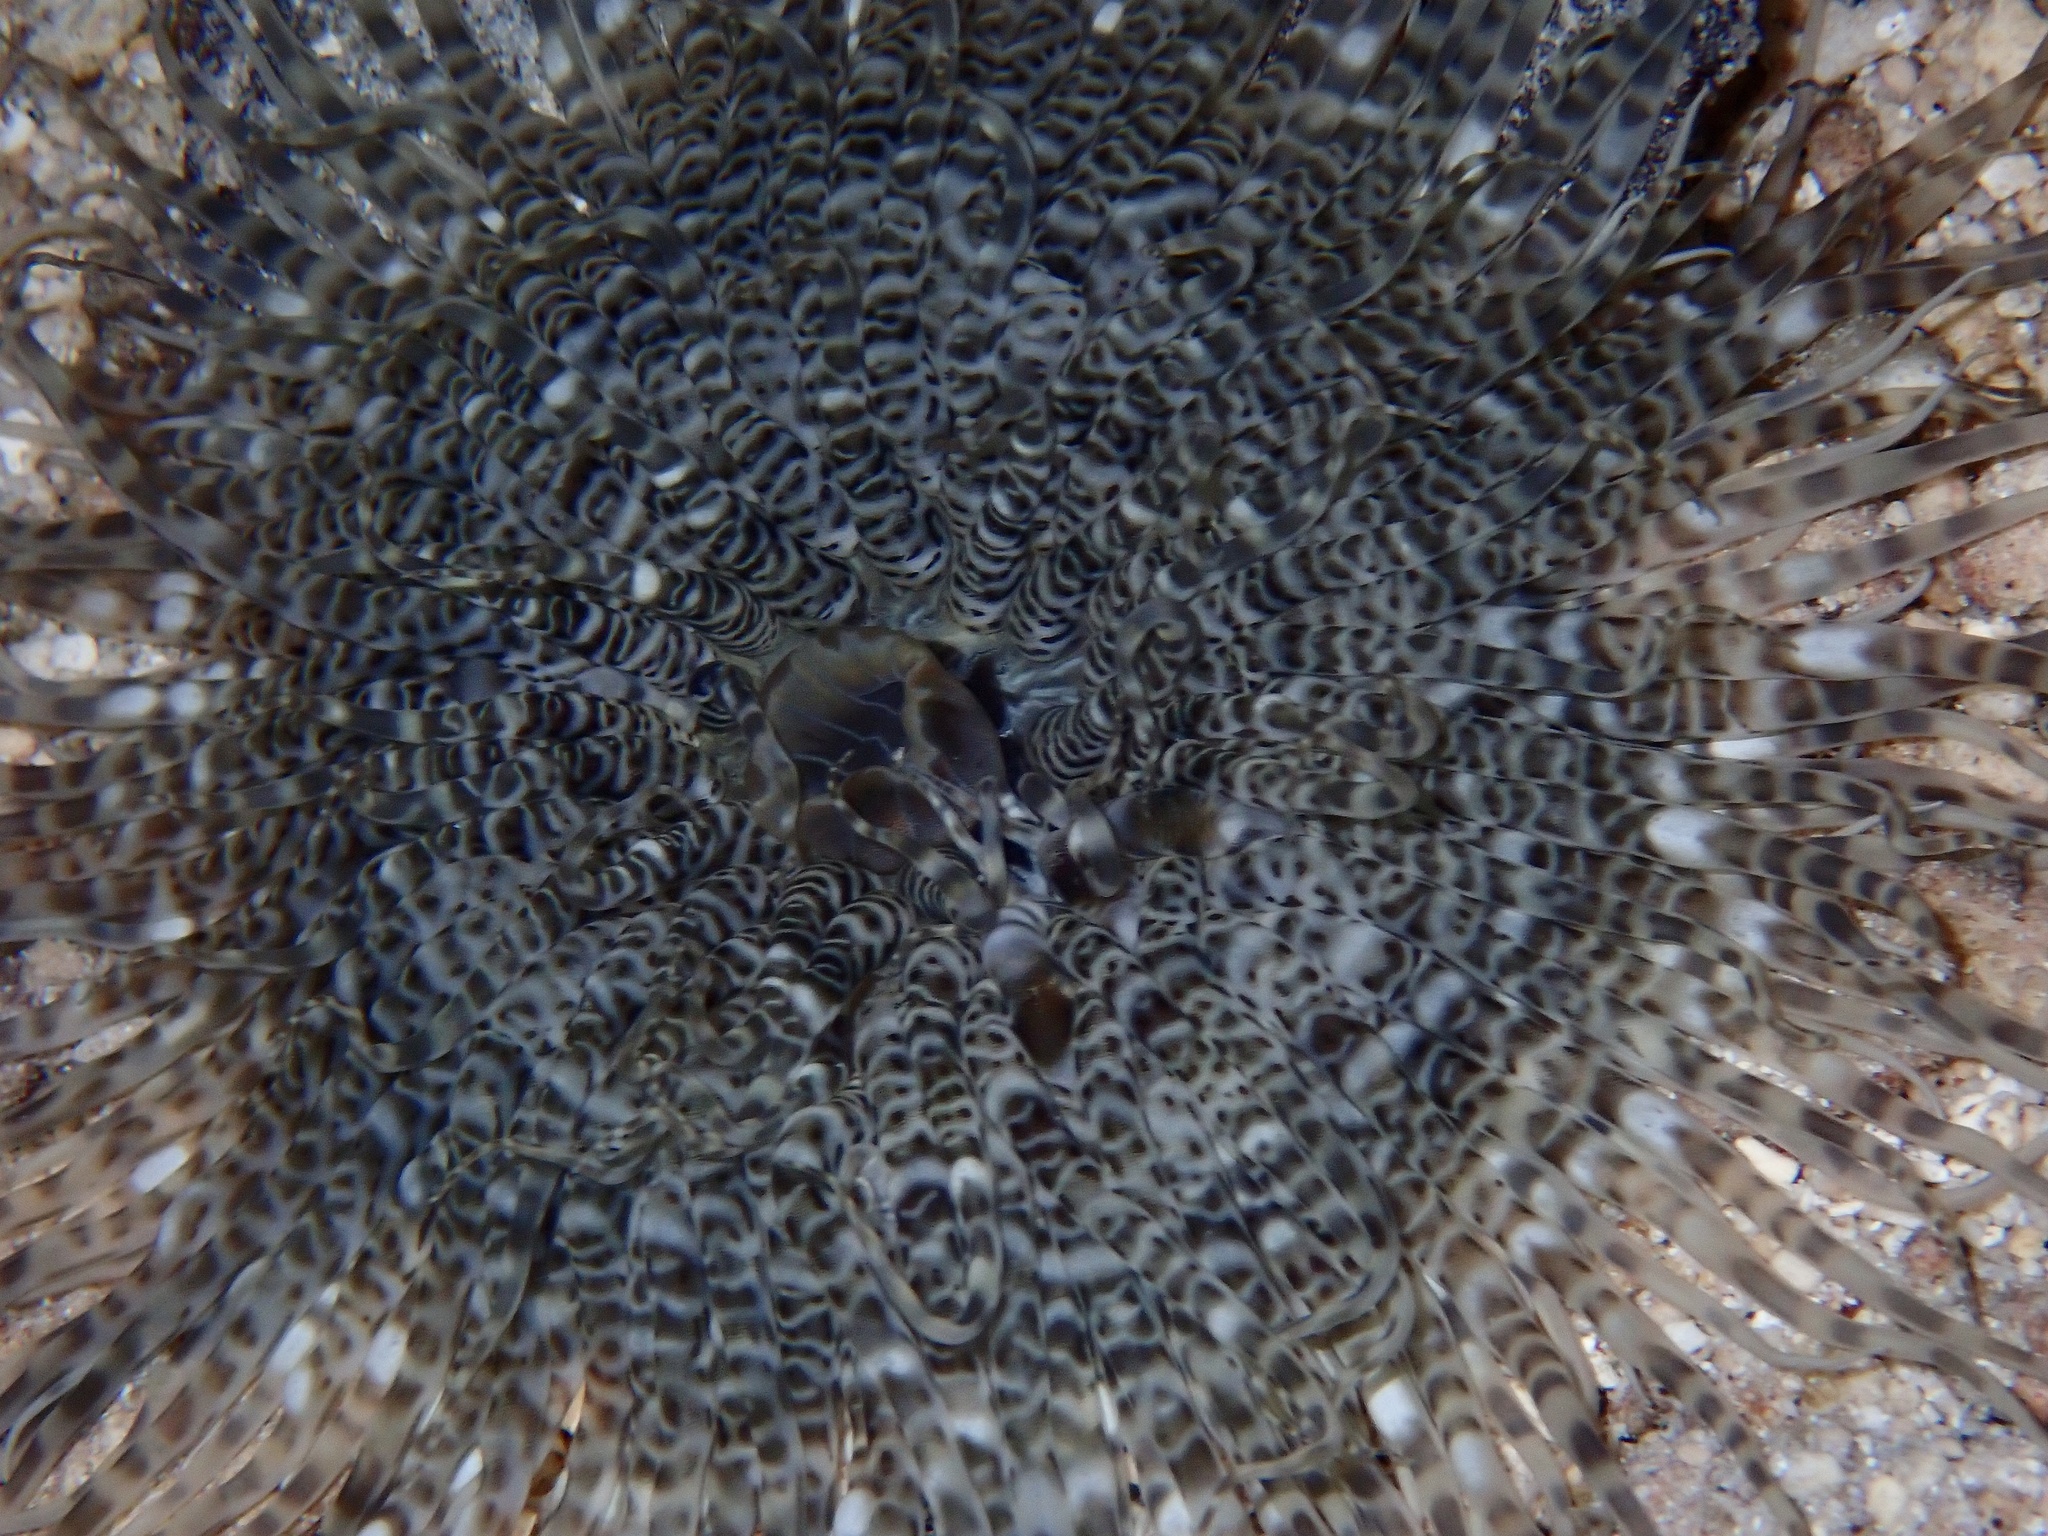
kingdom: Animalia
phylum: Cnidaria
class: Anthozoa
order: Actiniaria
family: Boloceroididae
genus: Boloceroides
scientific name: Boloceroides mcmurrichi
